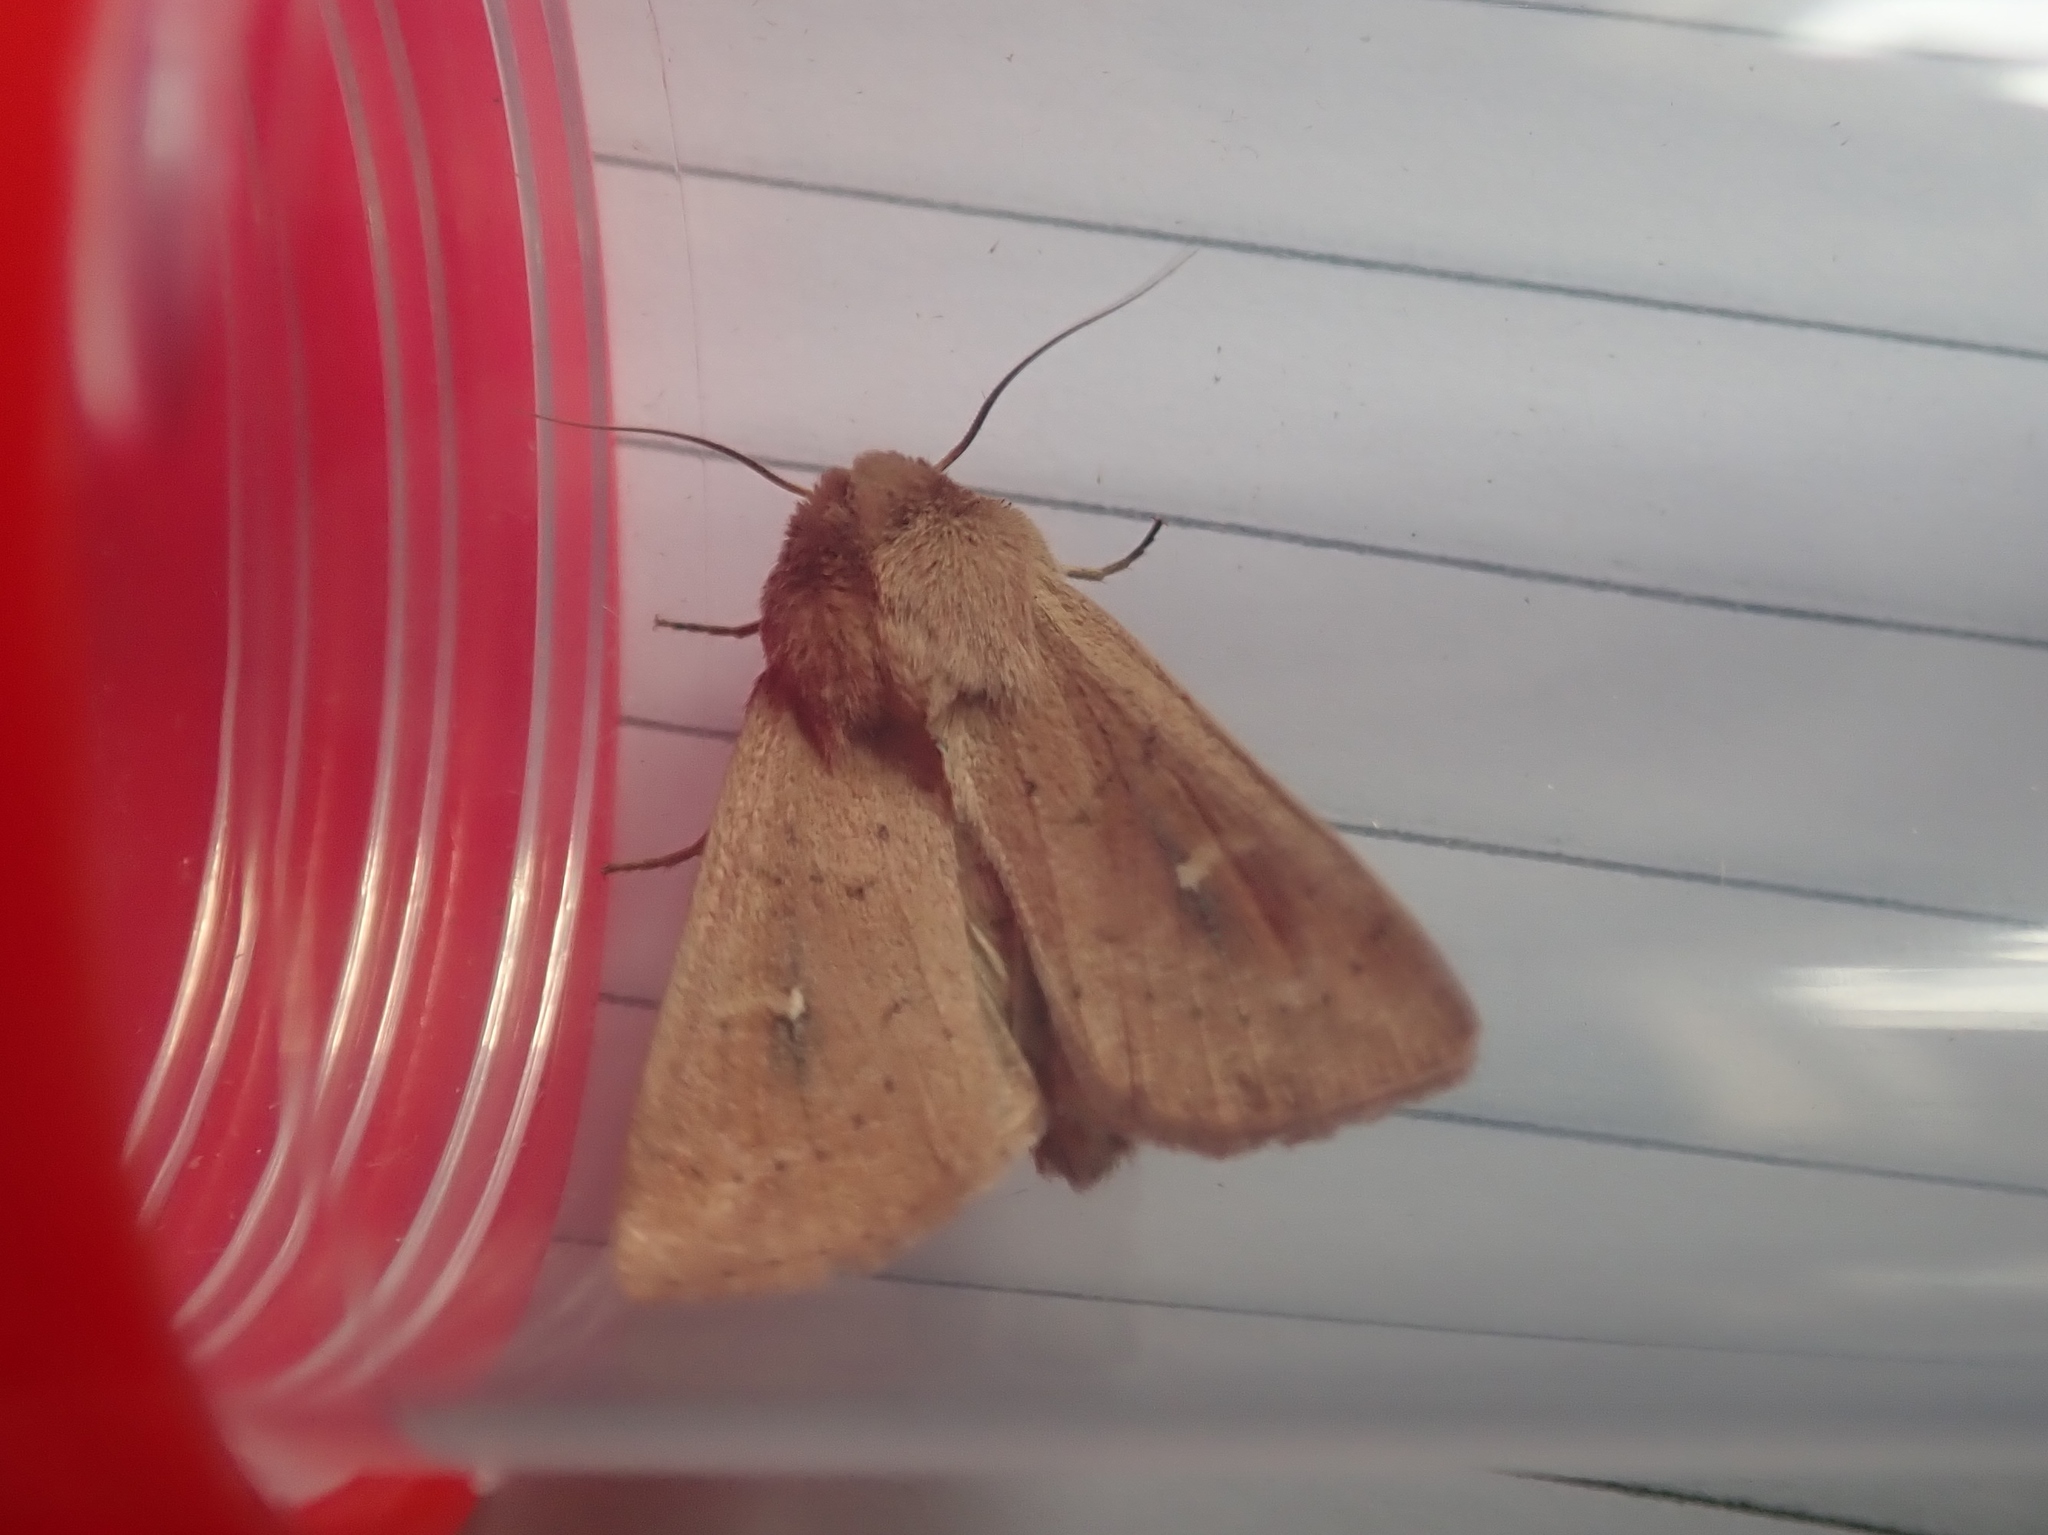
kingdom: Animalia
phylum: Arthropoda
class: Insecta
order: Lepidoptera
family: Noctuidae
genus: Mythimna
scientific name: Mythimna ferrago
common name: Clay
